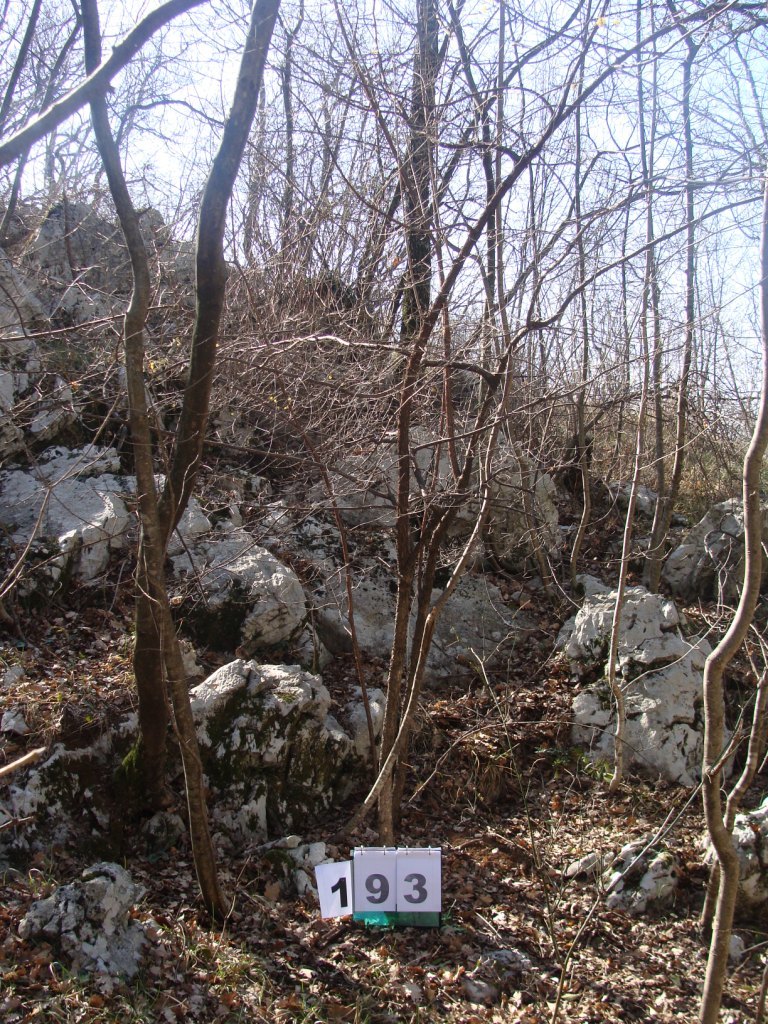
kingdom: Plantae
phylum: Tracheophyta
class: Magnoliopsida
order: Cornales
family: Cornaceae
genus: Cornus
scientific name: Cornus mas
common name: Cornelian-cherry
